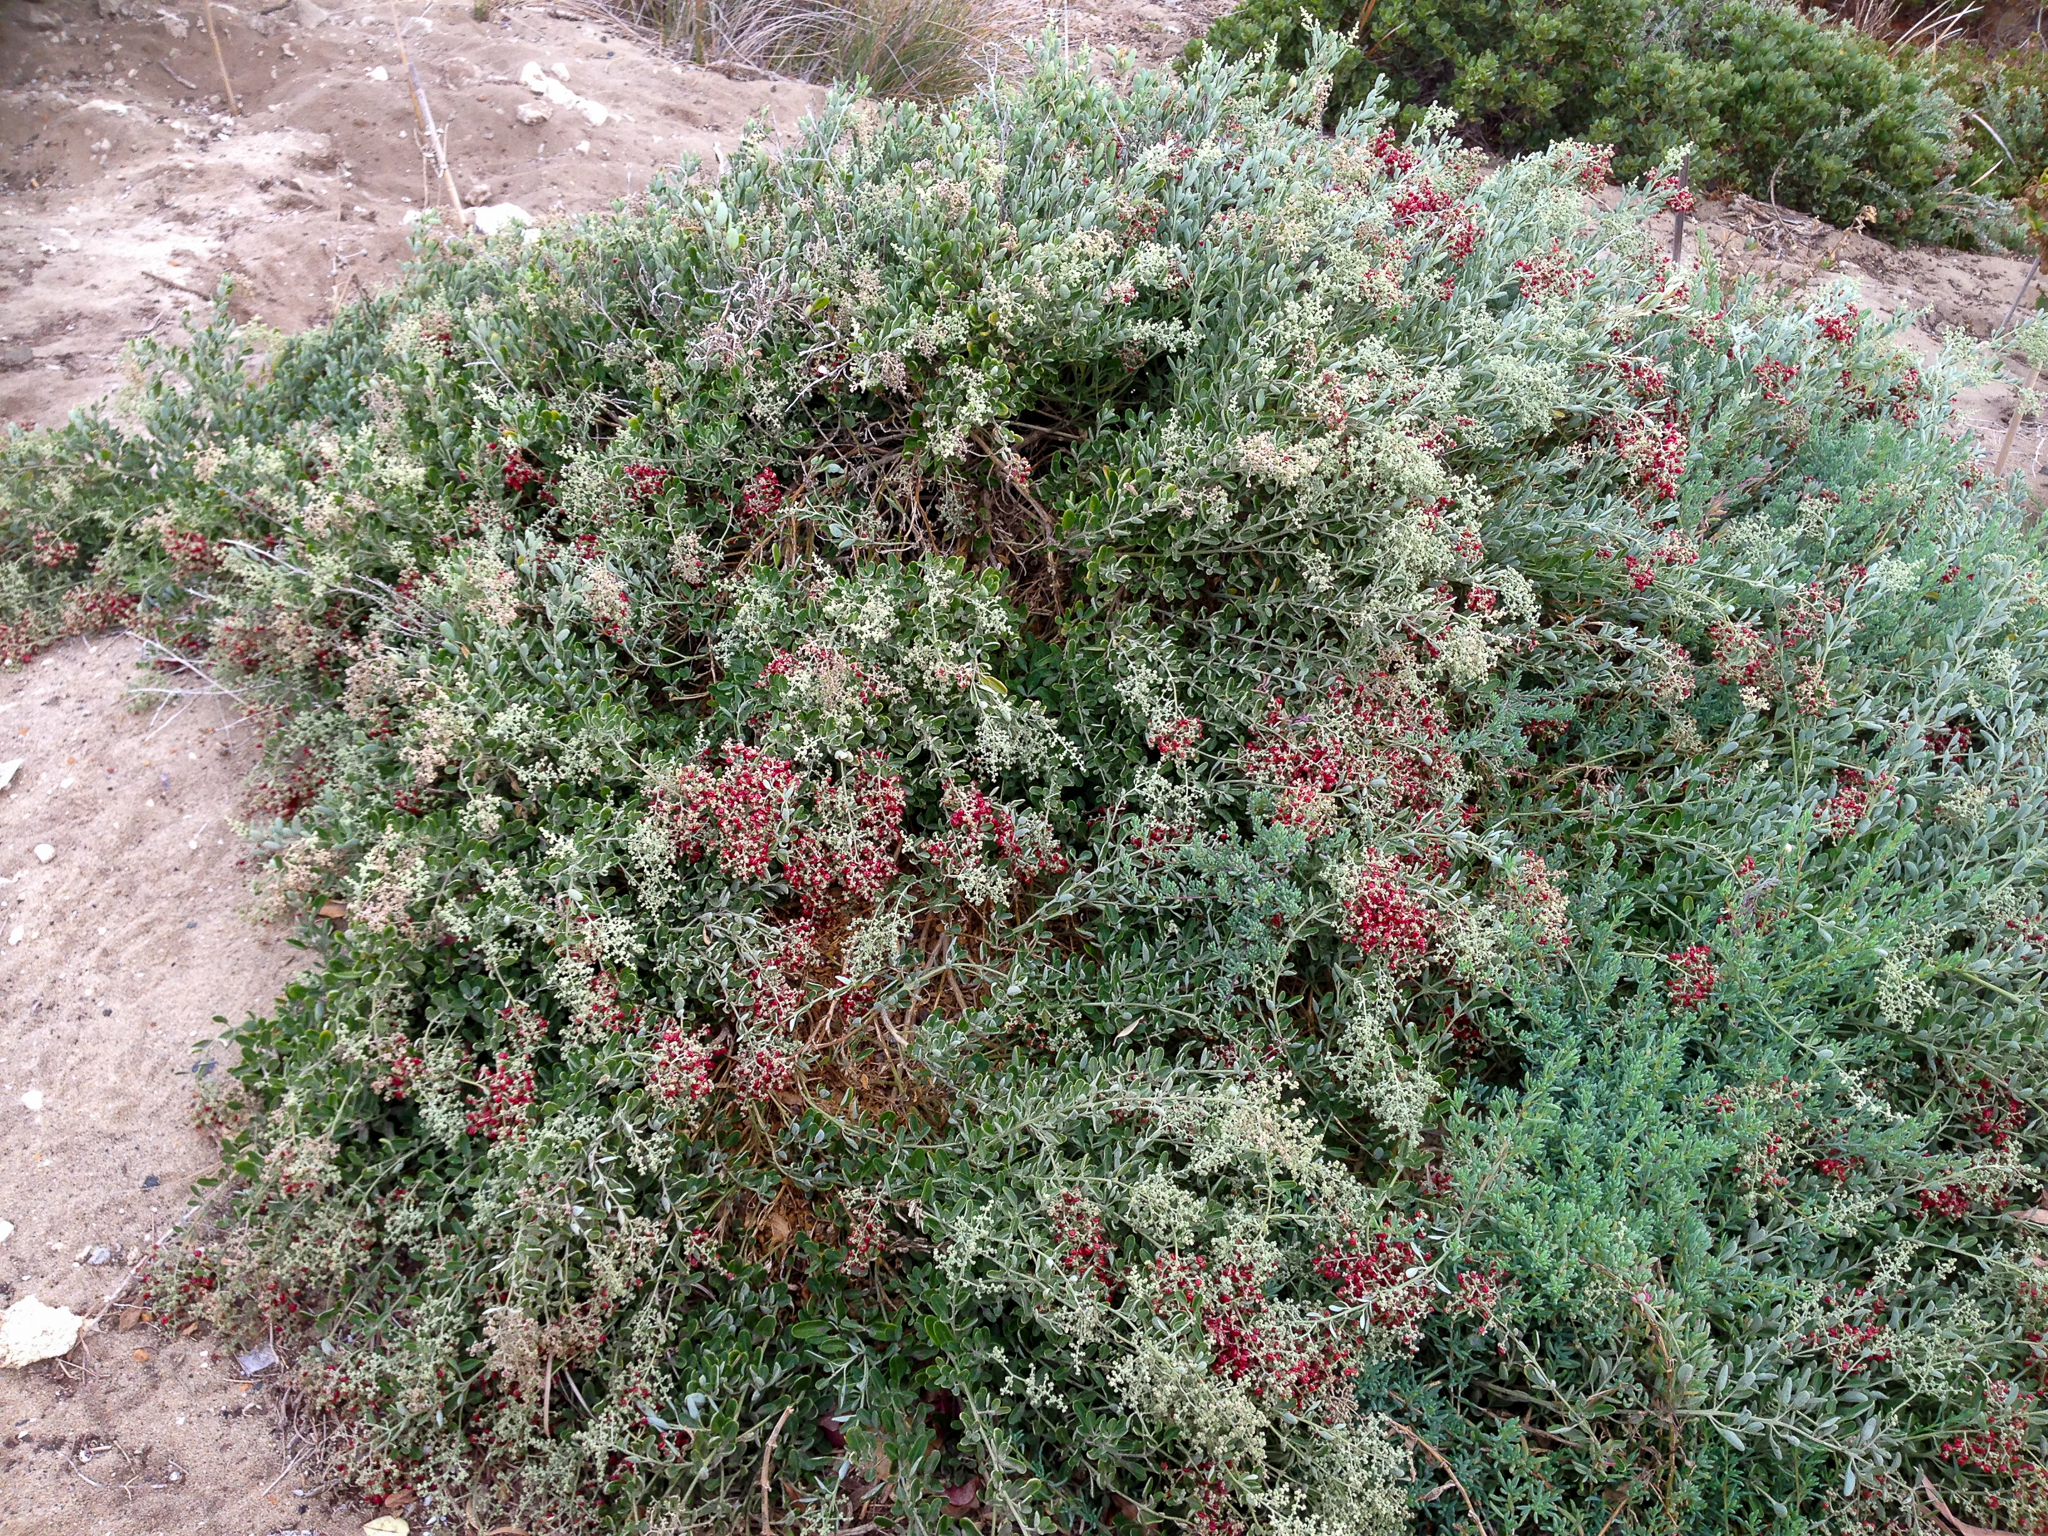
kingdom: Plantae
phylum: Tracheophyta
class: Magnoliopsida
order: Caryophyllales
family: Amaranthaceae
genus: Chenopodium
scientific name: Chenopodium baccatum
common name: Coastal-saltbush
